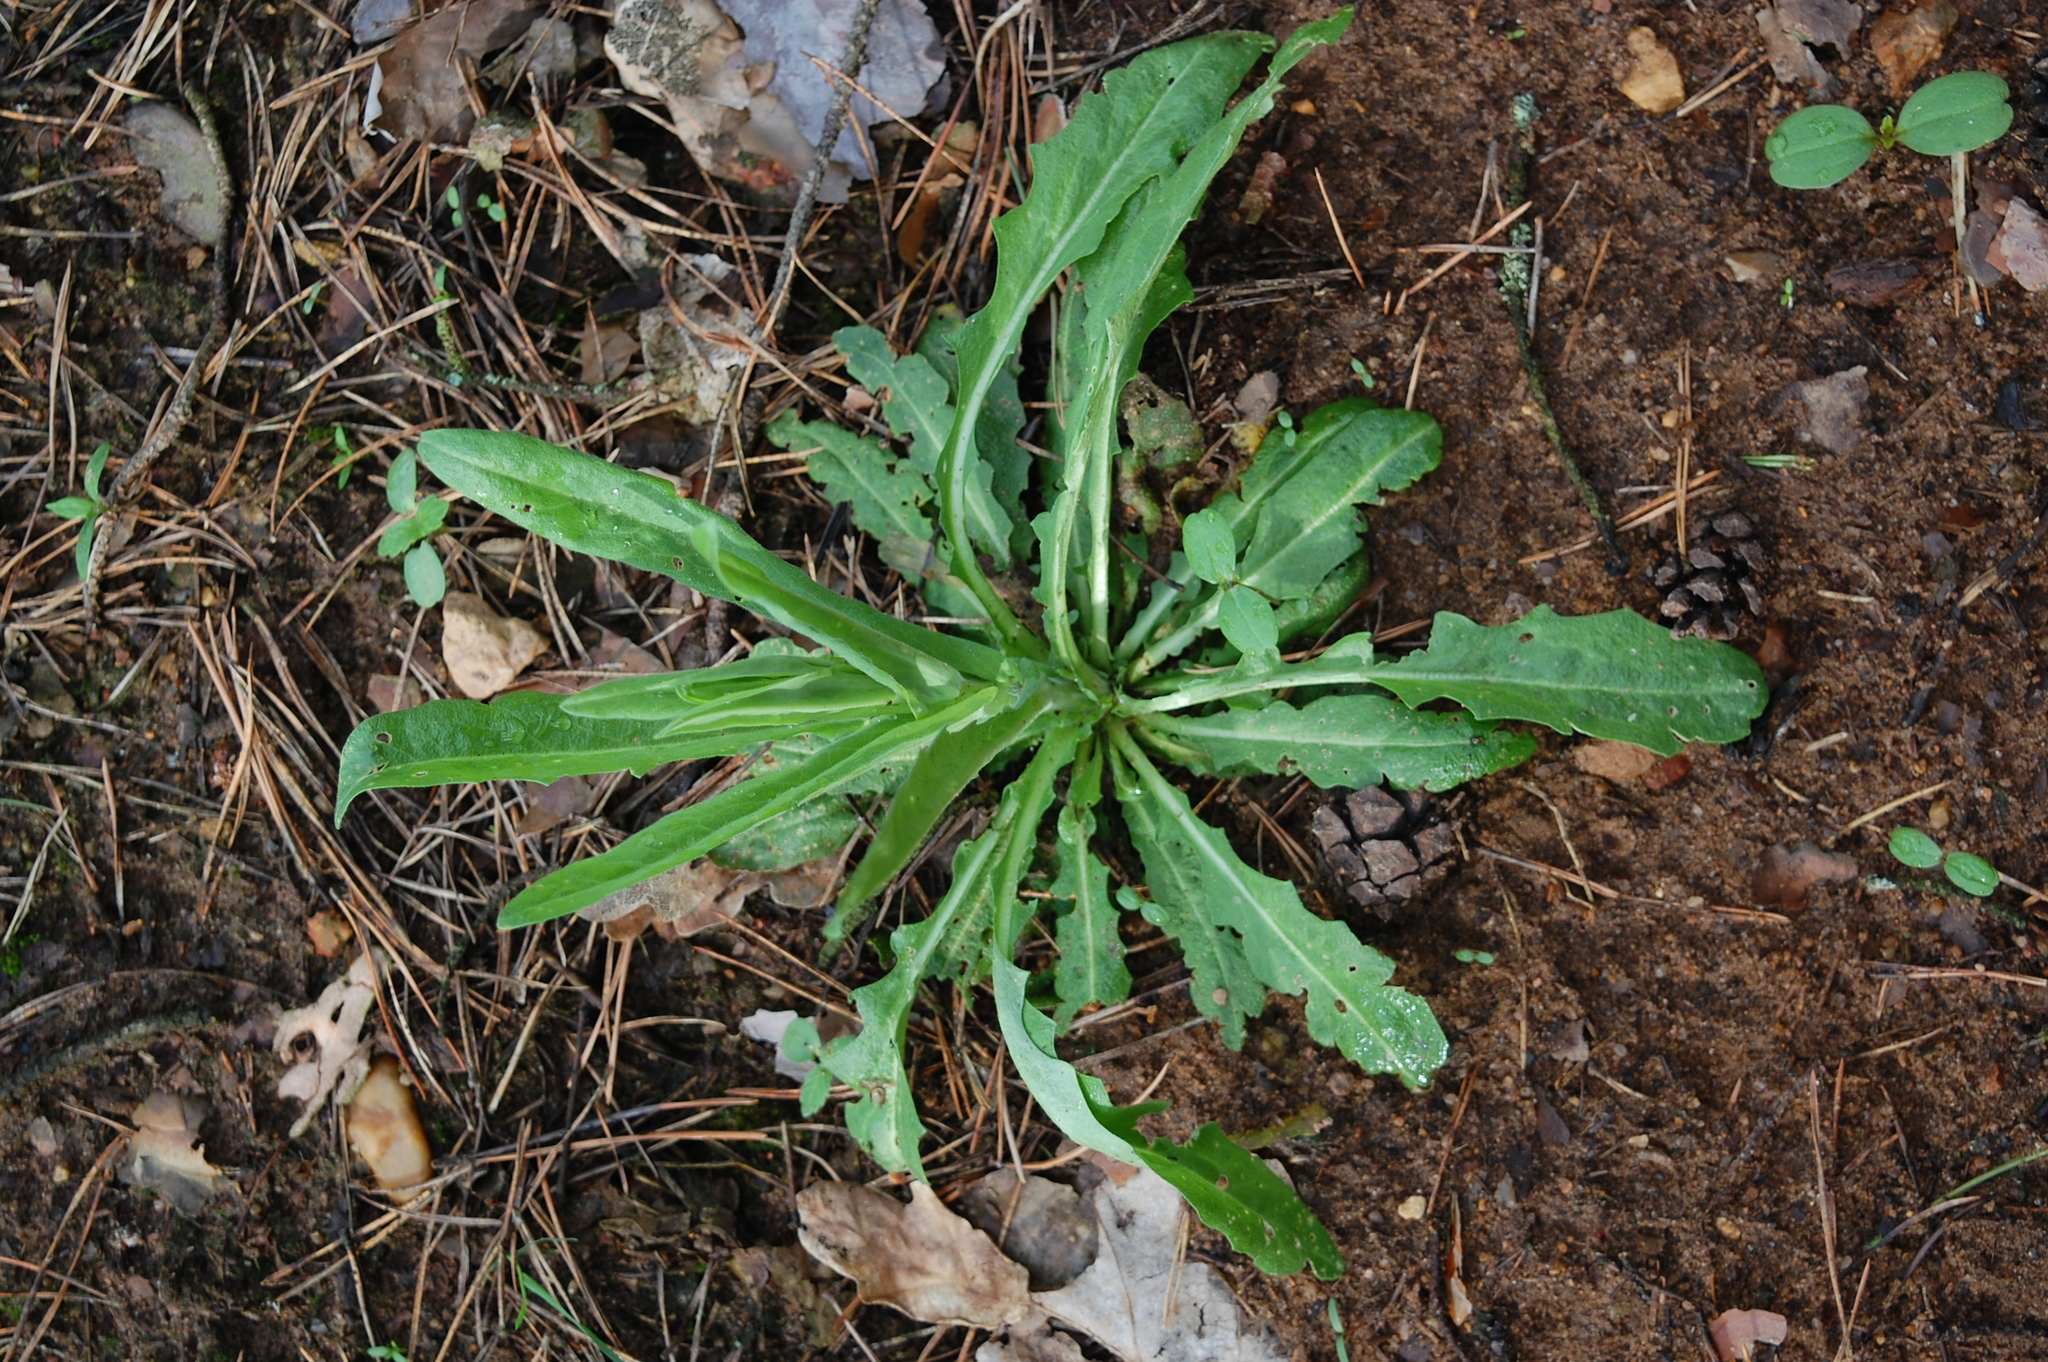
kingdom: Plantae
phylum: Tracheophyta
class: Magnoliopsida
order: Brassicales
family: Brassicaceae
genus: Turritis
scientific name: Turritis glabra
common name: Tower rockcress
